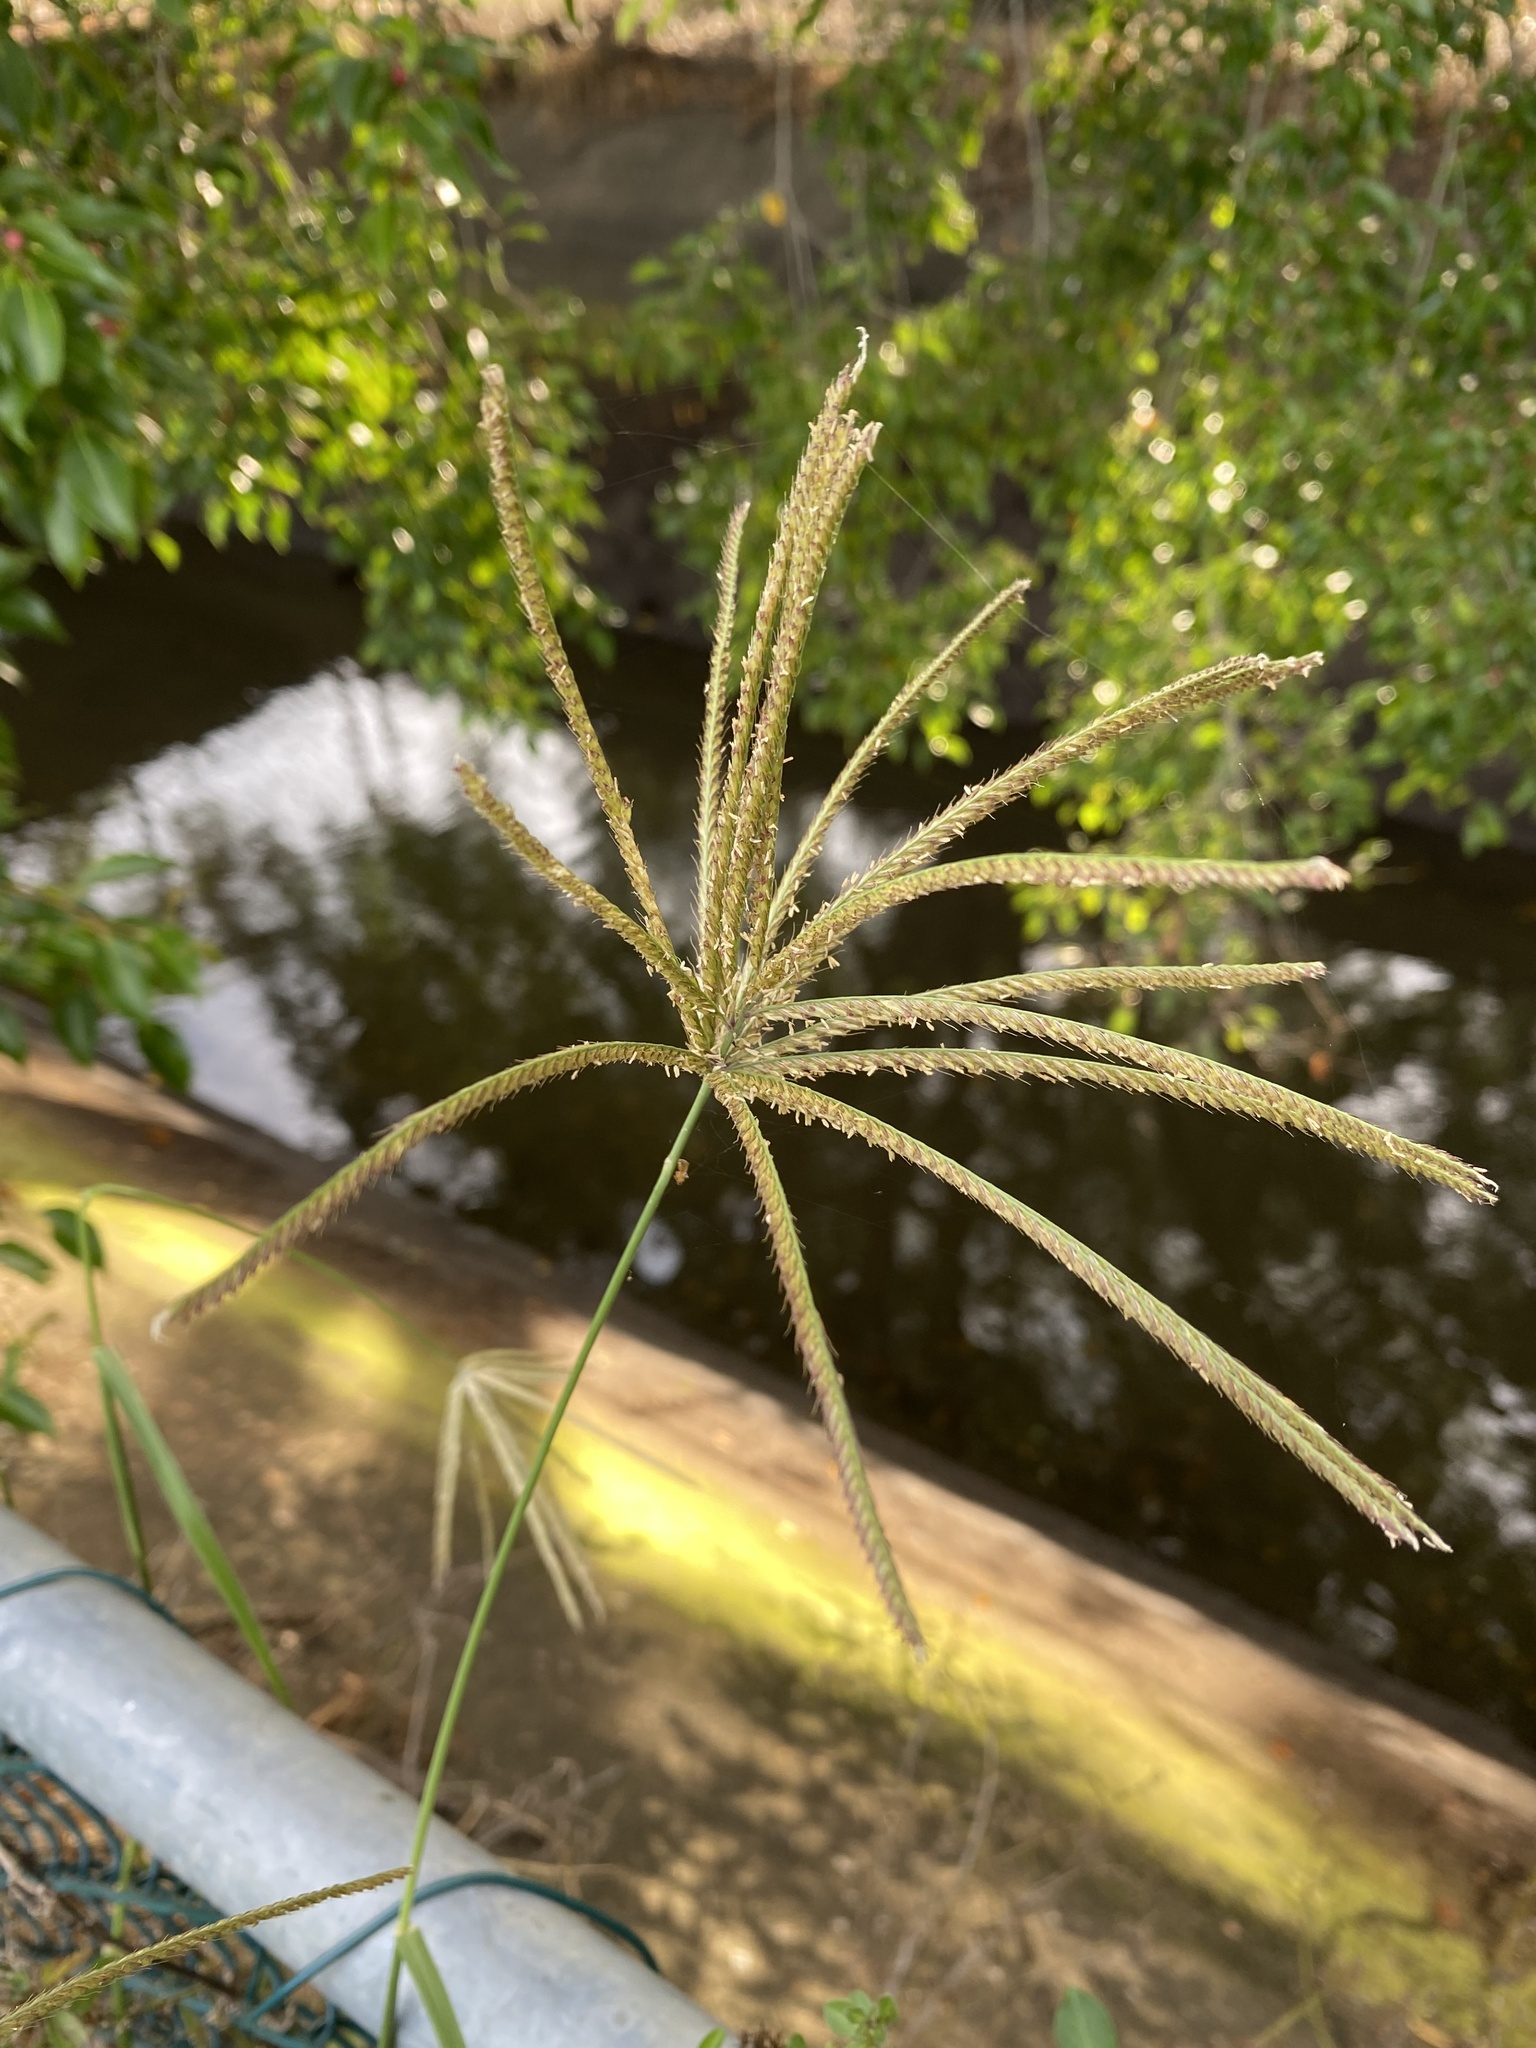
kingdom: Plantae
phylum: Tracheophyta
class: Liliopsida
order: Poales
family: Poaceae
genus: Chloris
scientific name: Chloris gayana
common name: Rhodes grass
